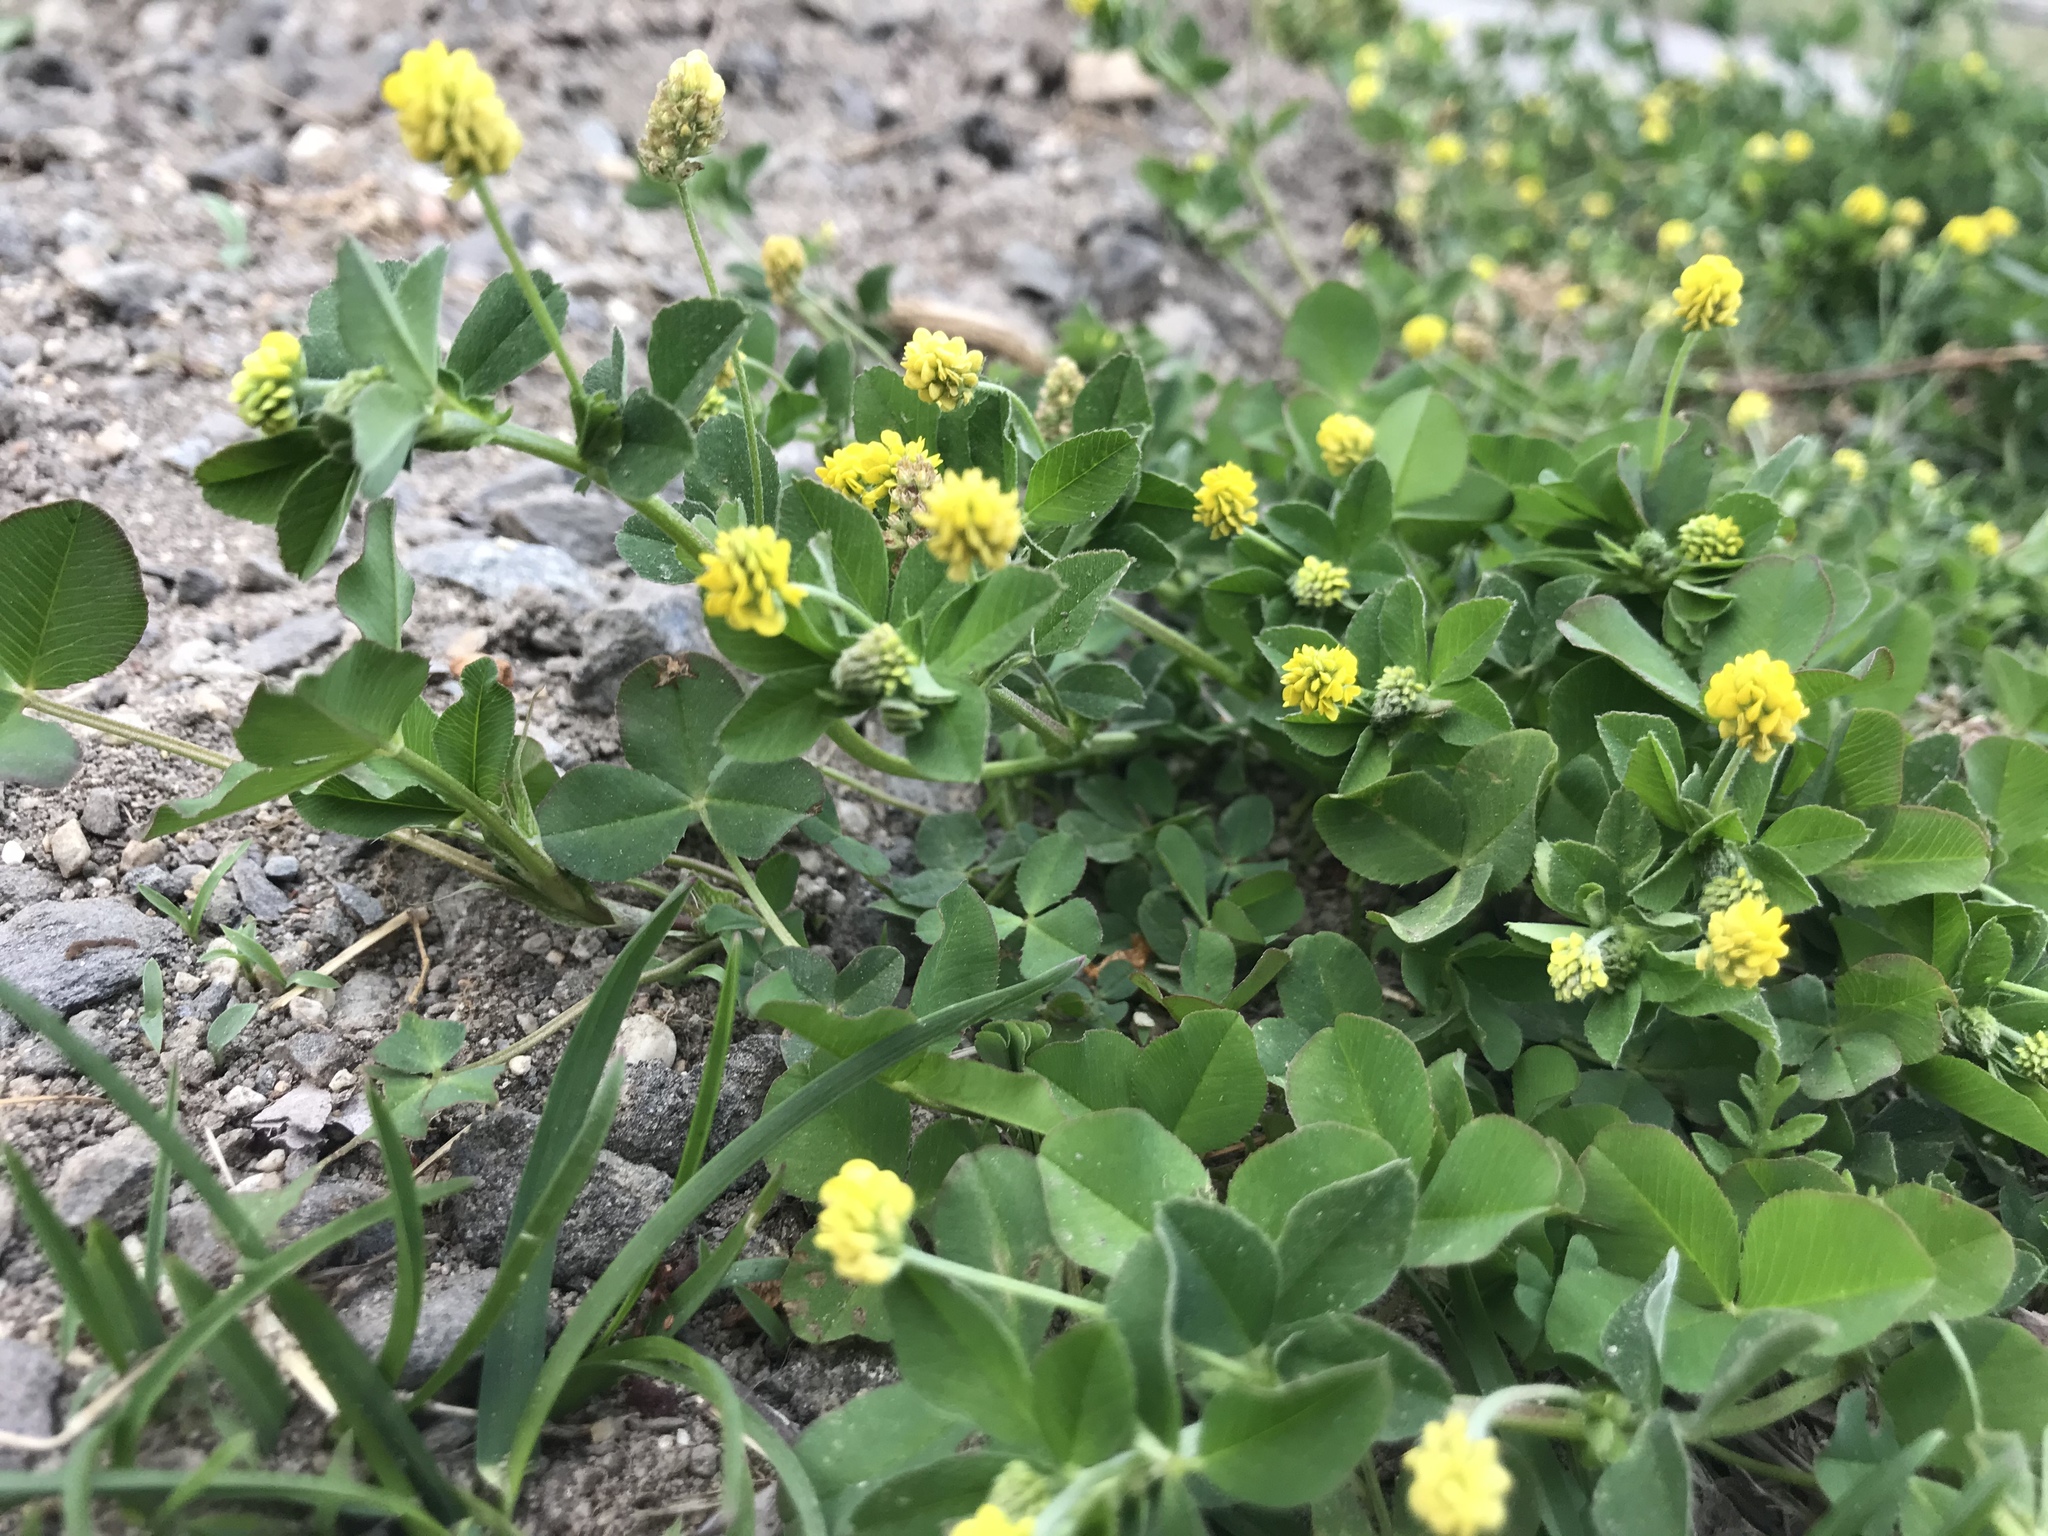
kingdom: Plantae
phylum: Tracheophyta
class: Magnoliopsida
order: Fabales
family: Fabaceae
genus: Medicago
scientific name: Medicago lupulina
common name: Black medick
